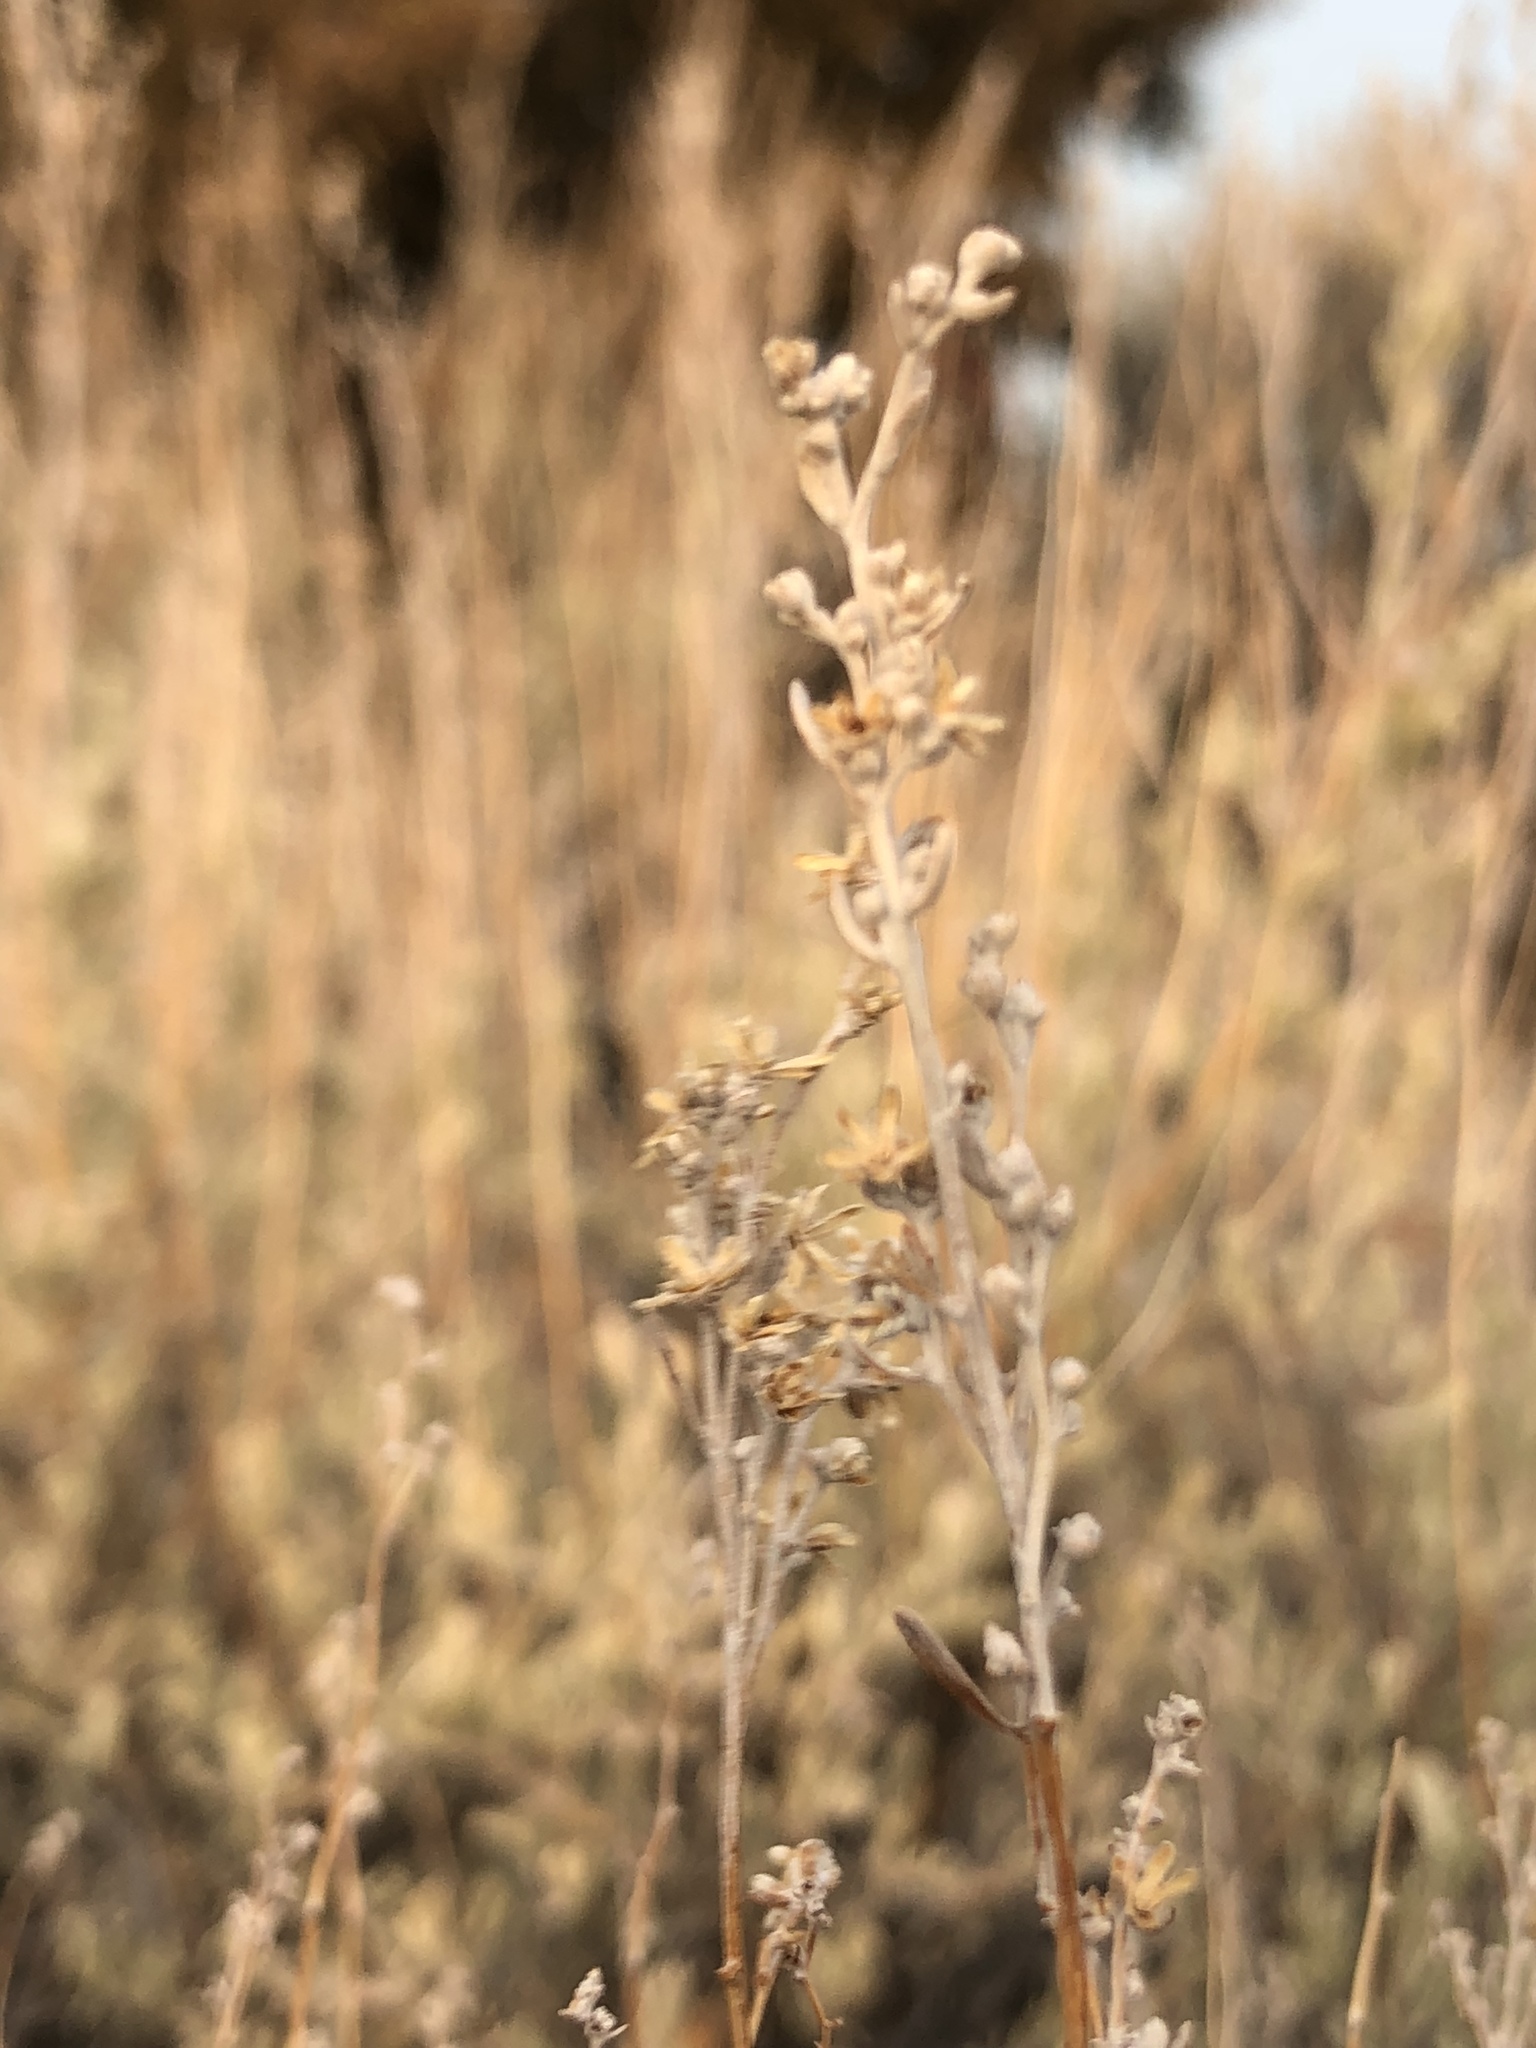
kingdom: Plantae
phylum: Tracheophyta
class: Magnoliopsida
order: Asterales
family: Asteraceae
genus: Artemisia
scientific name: Artemisia tridentata
